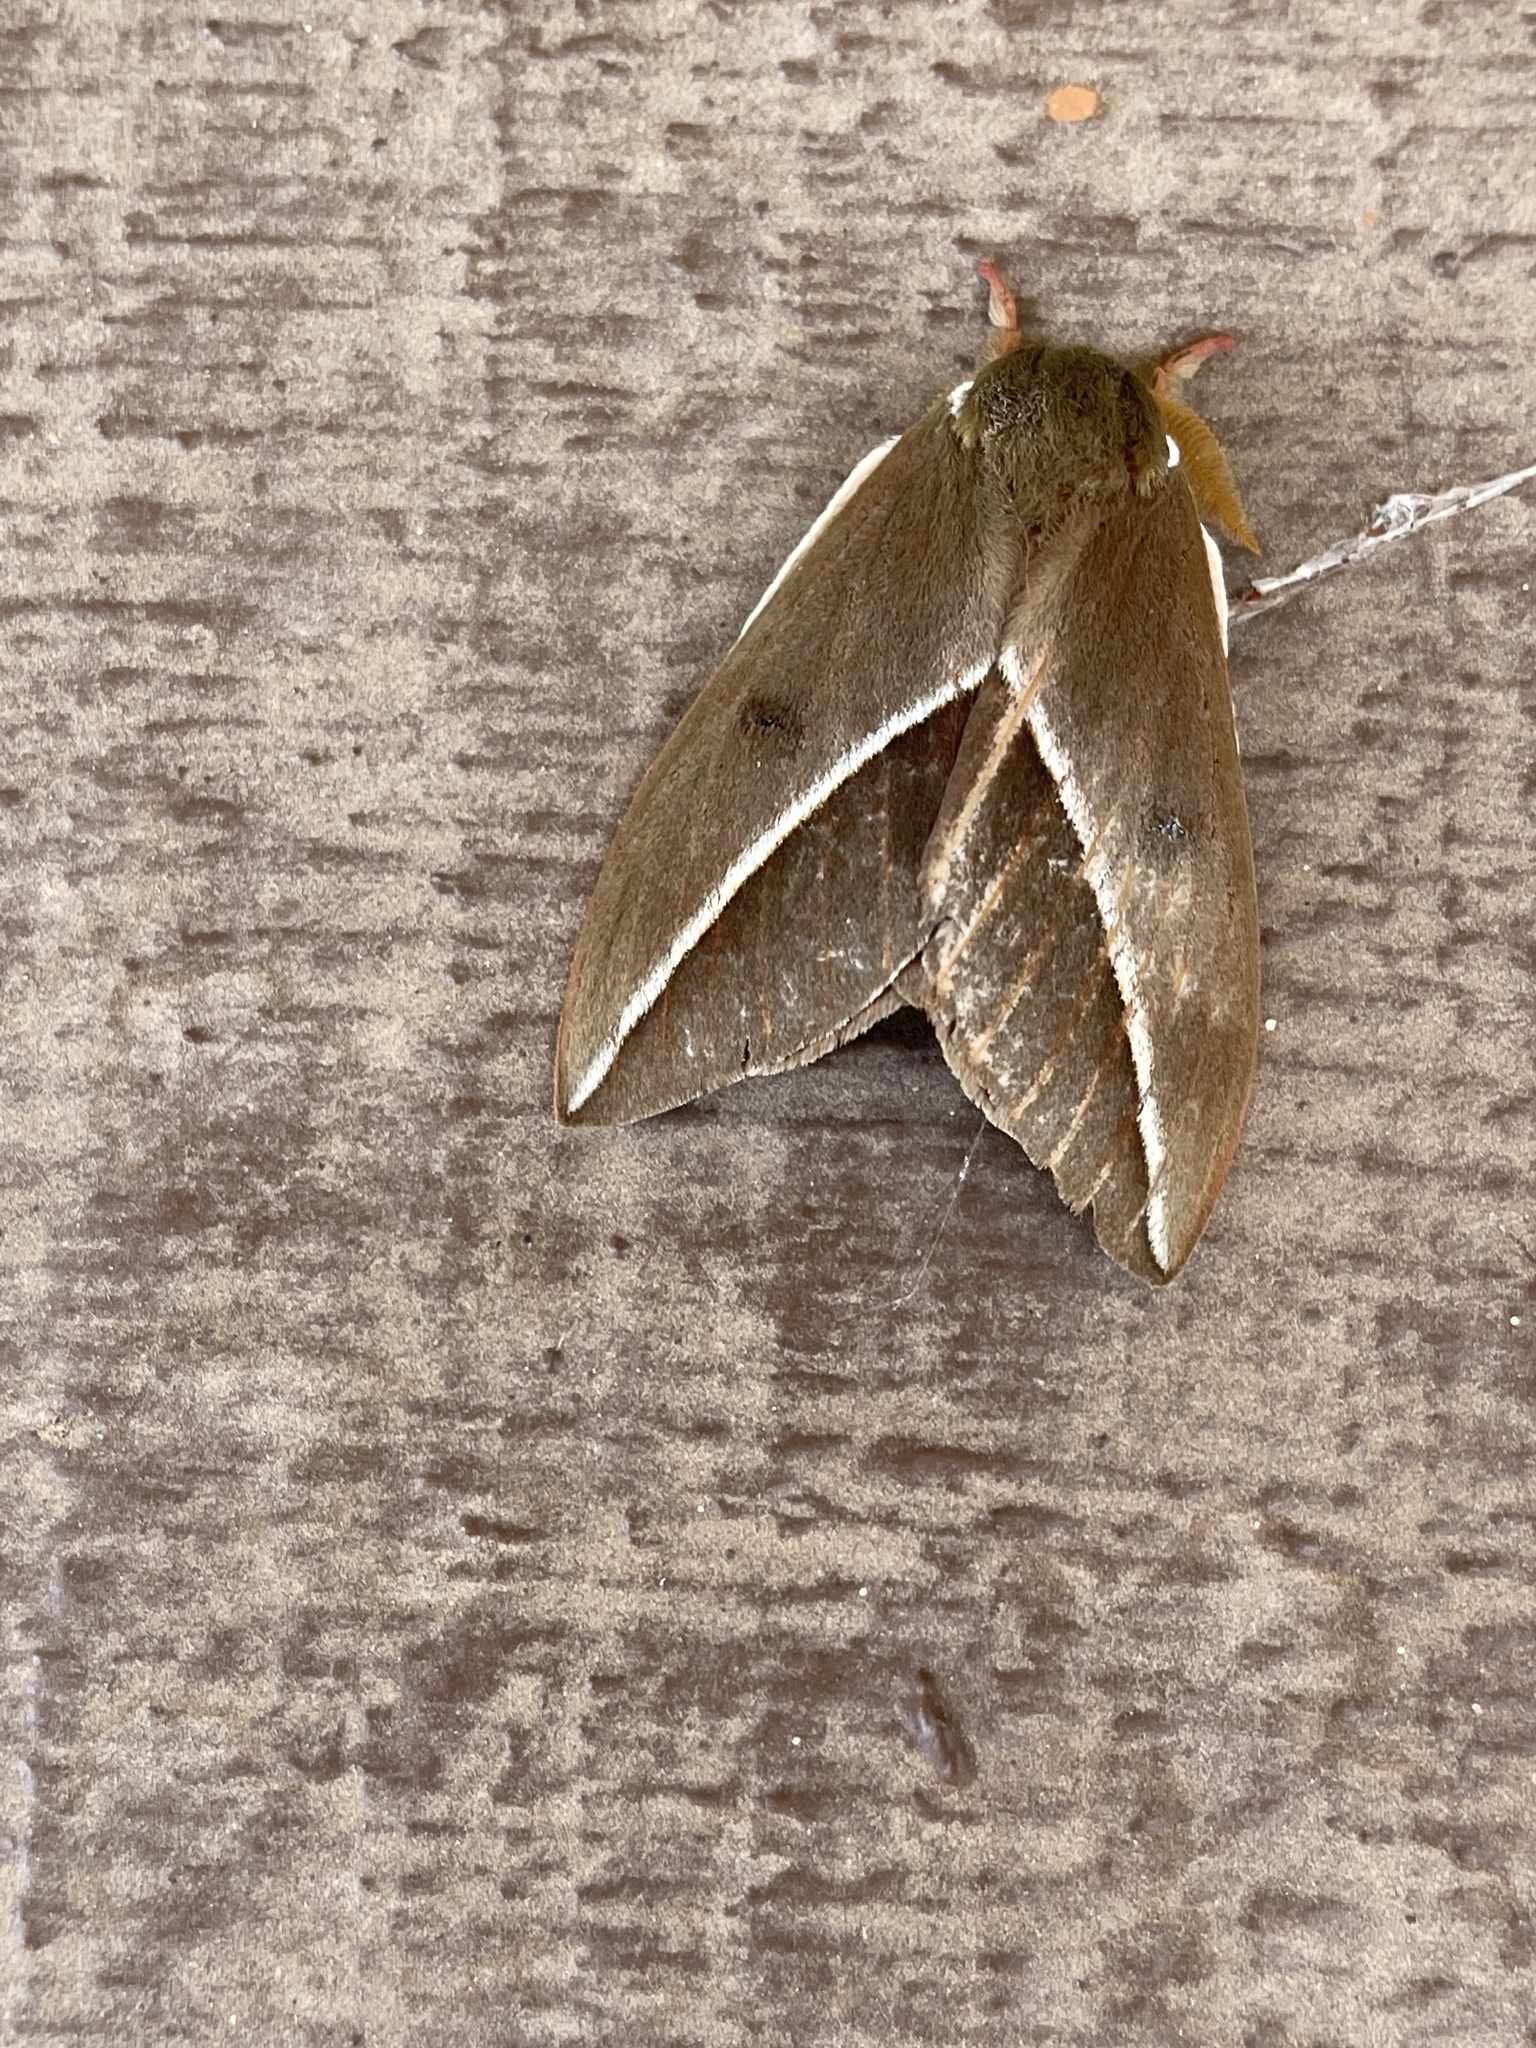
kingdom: Animalia
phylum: Arthropoda
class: Insecta
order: Lepidoptera
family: Saturniidae
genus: Automeris
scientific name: Automeris zephyria
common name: Zephyr eyed silkmoth
